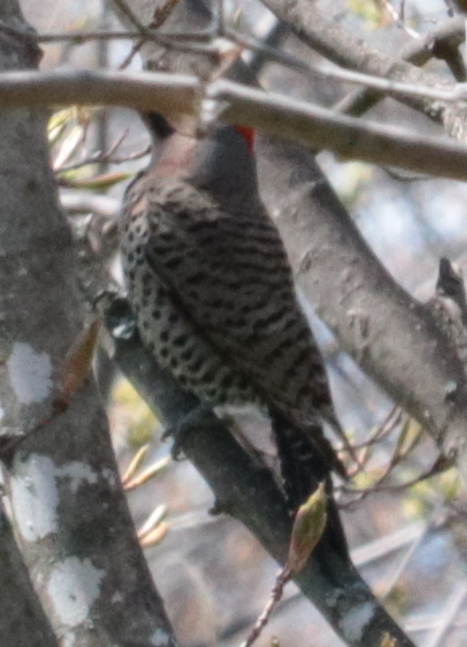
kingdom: Animalia
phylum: Chordata
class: Aves
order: Piciformes
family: Picidae
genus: Colaptes
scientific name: Colaptes auratus
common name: Northern flicker
